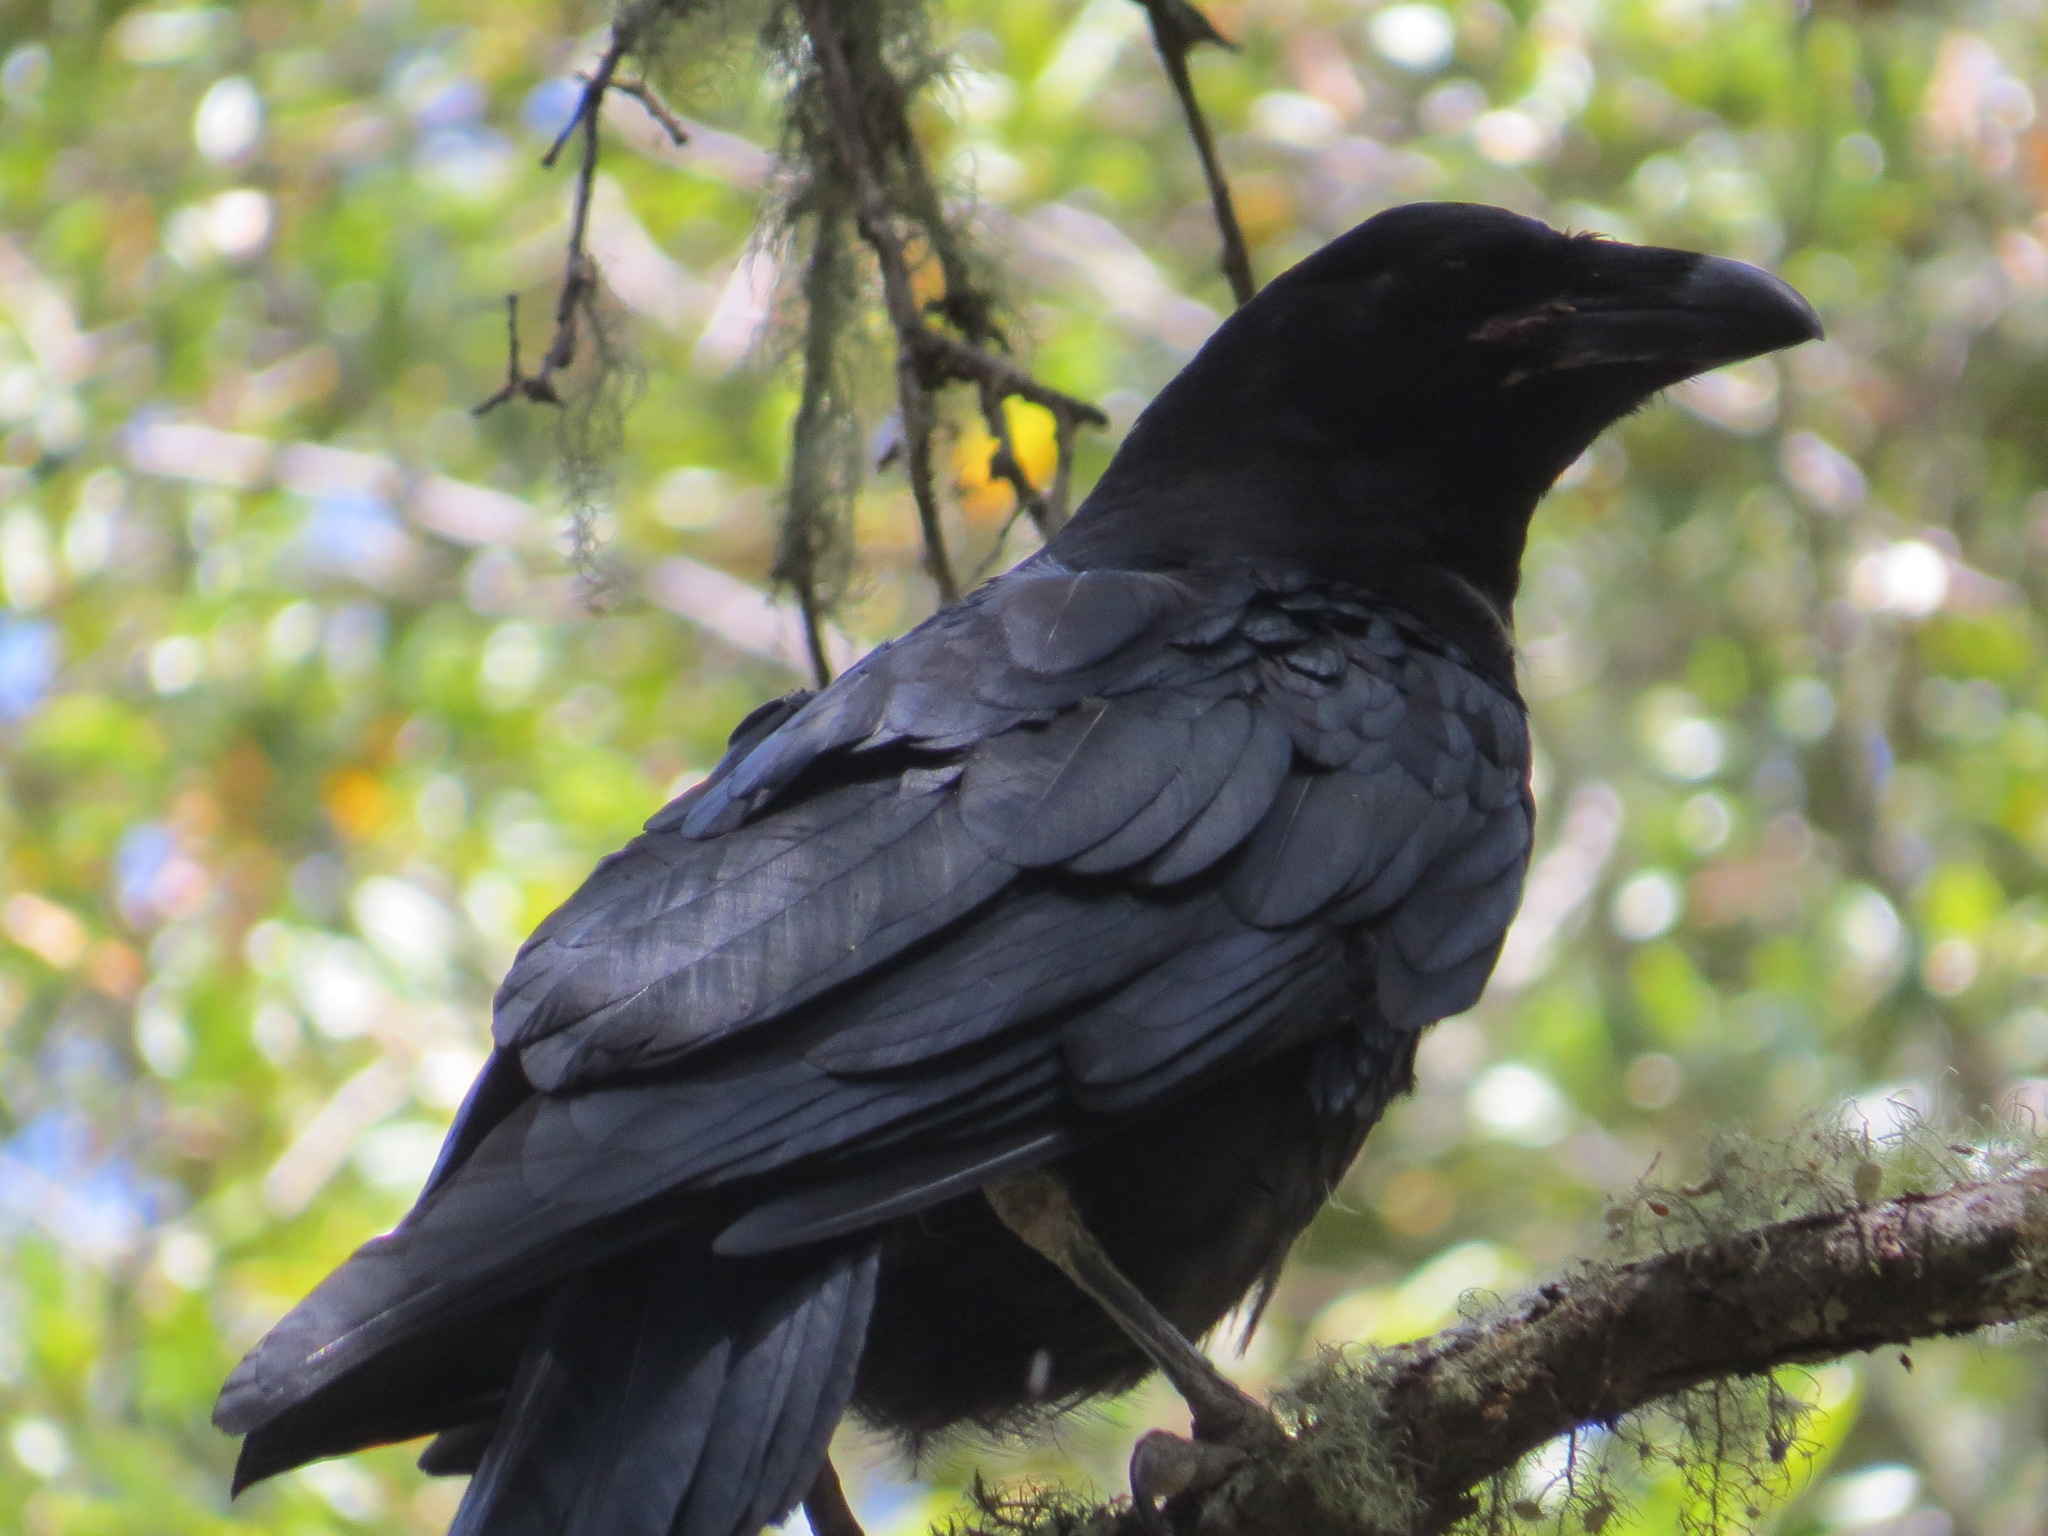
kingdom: Animalia
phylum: Chordata
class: Aves
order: Passeriformes
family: Corvidae
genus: Corvus
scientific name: Corvus corax
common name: Common raven
